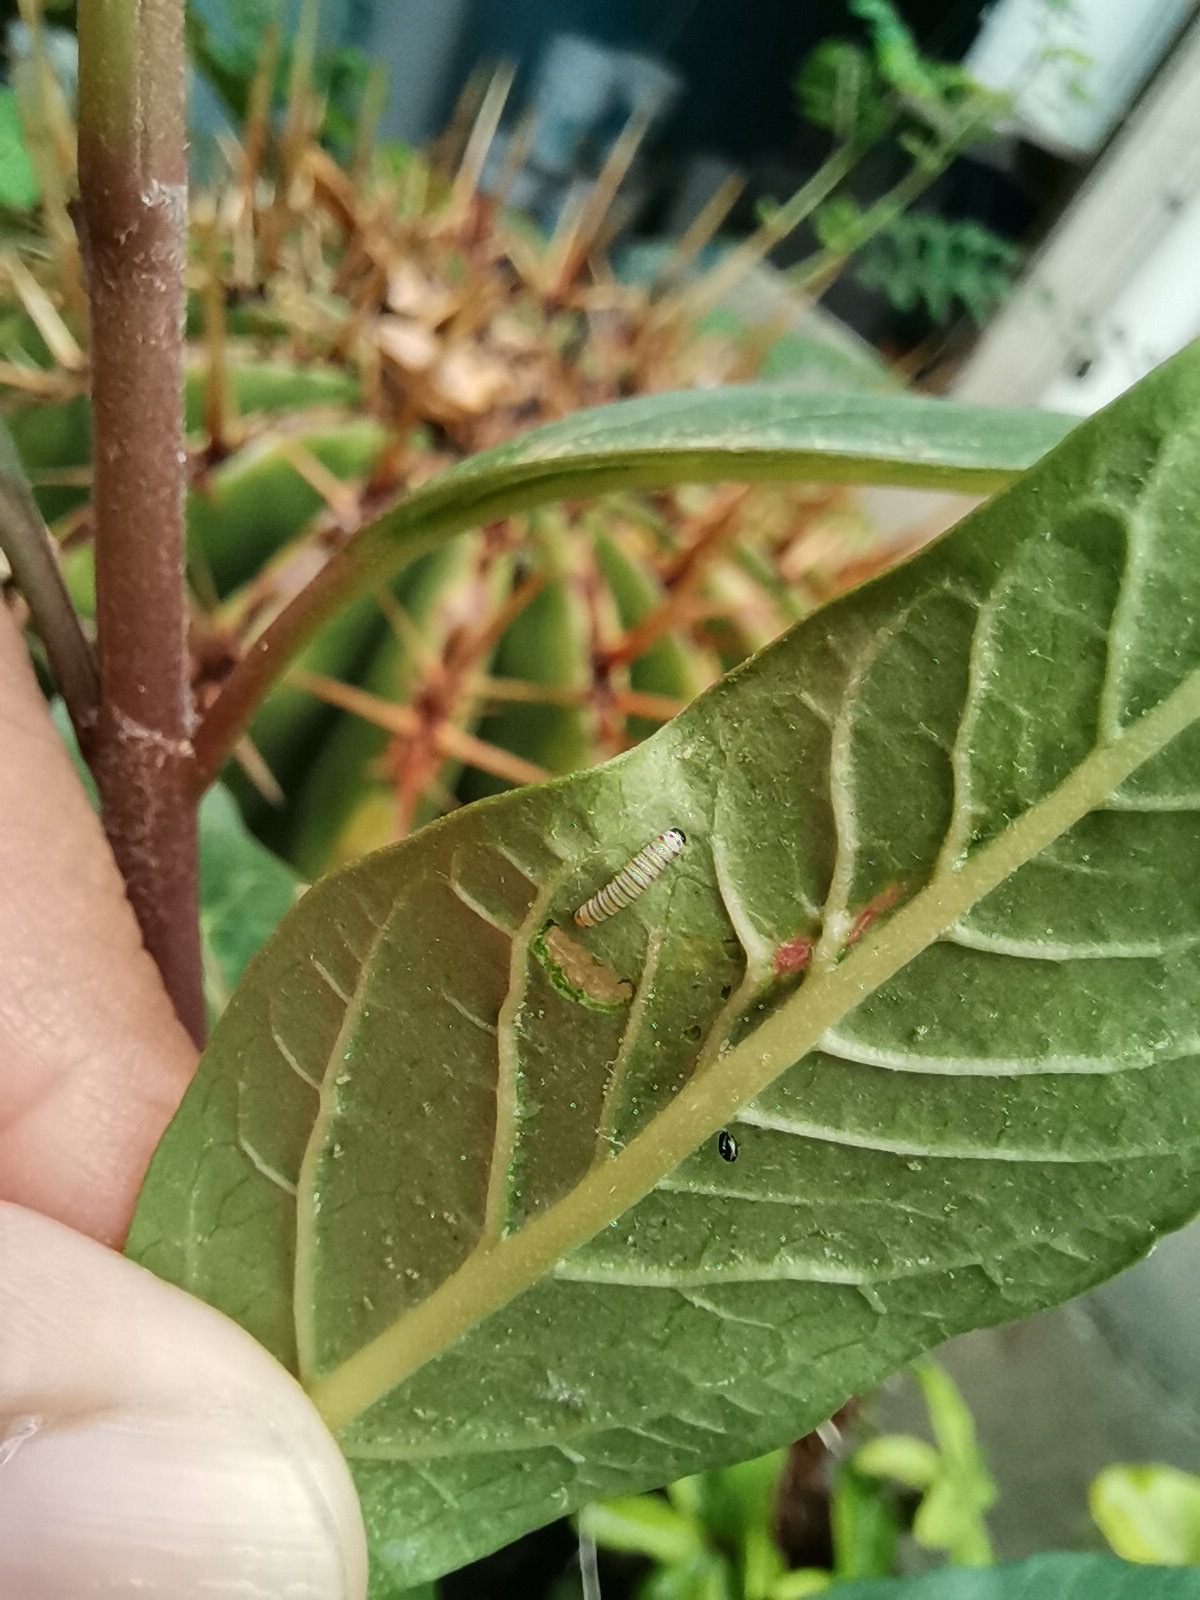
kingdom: Animalia
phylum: Arthropoda
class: Insecta
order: Lepidoptera
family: Nymphalidae
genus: Danaus
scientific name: Danaus plexippus
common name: Monarch
